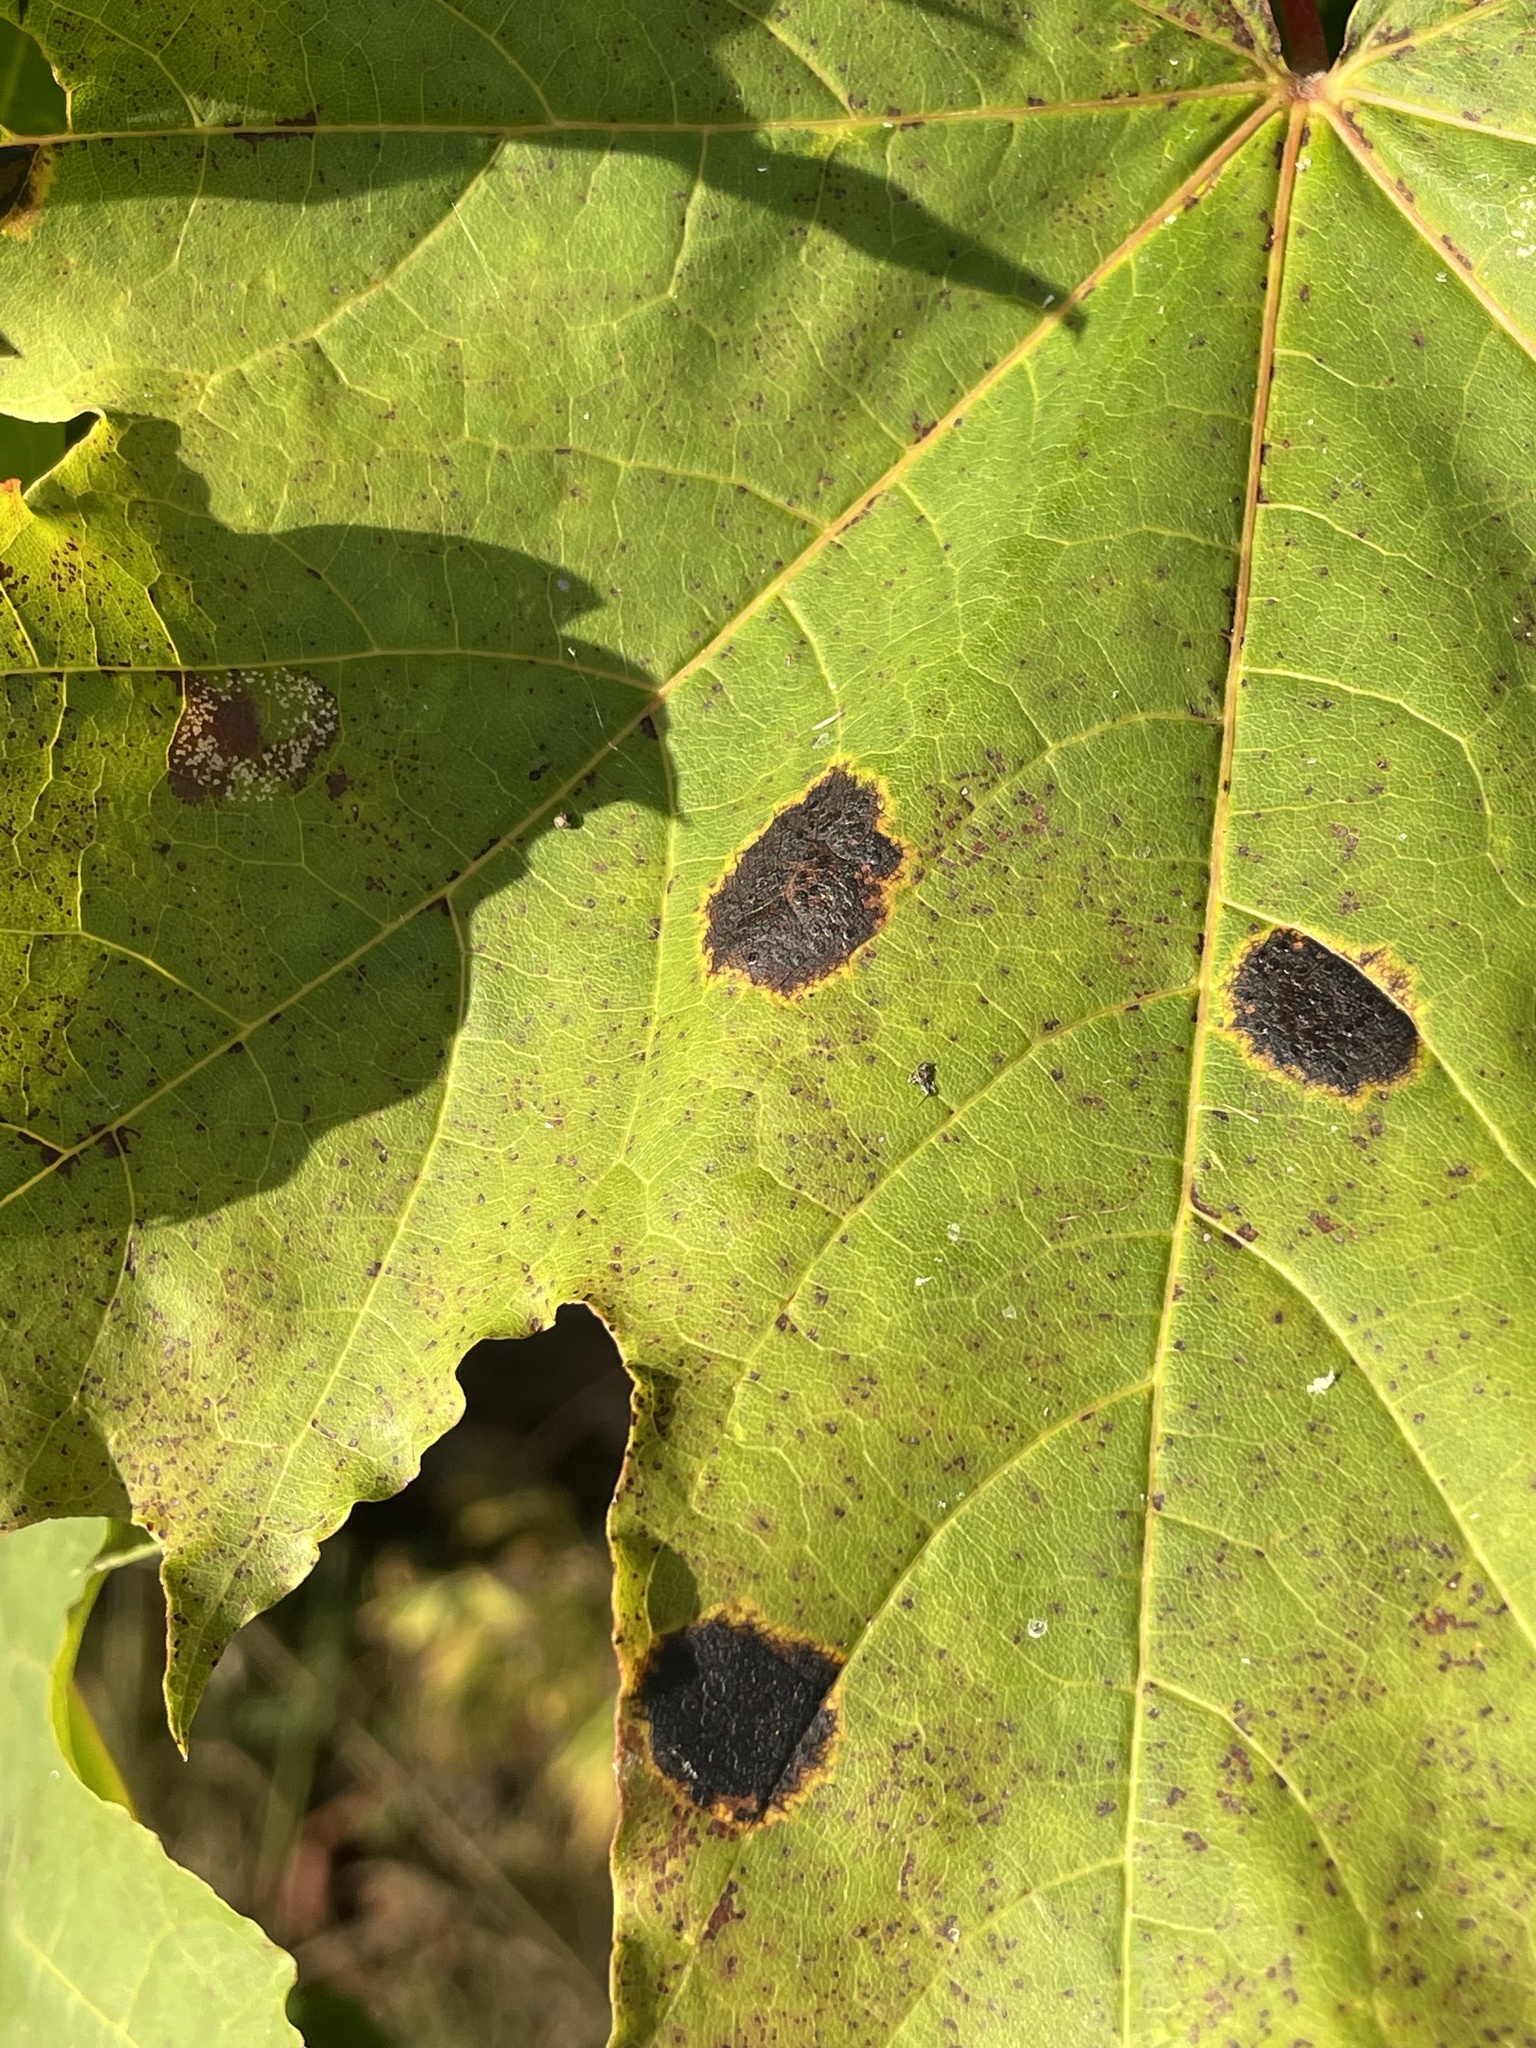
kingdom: Fungi
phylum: Ascomycota
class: Leotiomycetes
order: Rhytismatales
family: Rhytismataceae
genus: Rhytisma
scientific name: Rhytisma acerinum
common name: European tar spot
